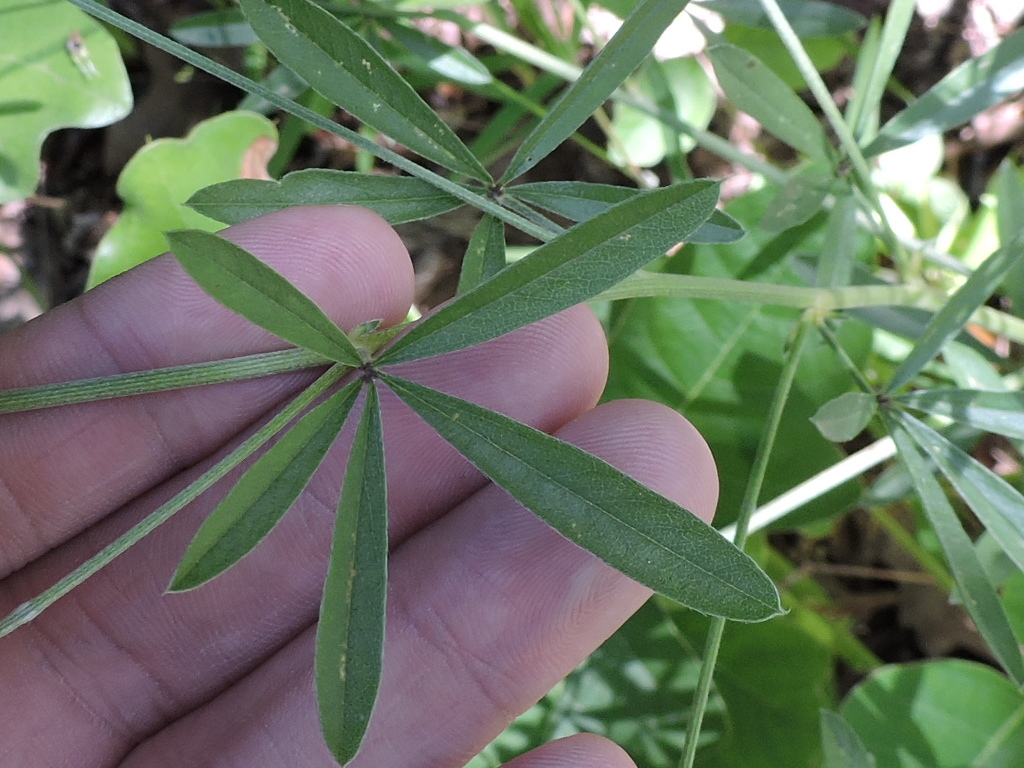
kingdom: Plantae
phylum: Tracheophyta
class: Magnoliopsida
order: Fabales
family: Fabaceae
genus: Pediomelum
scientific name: Pediomelum digitatum
